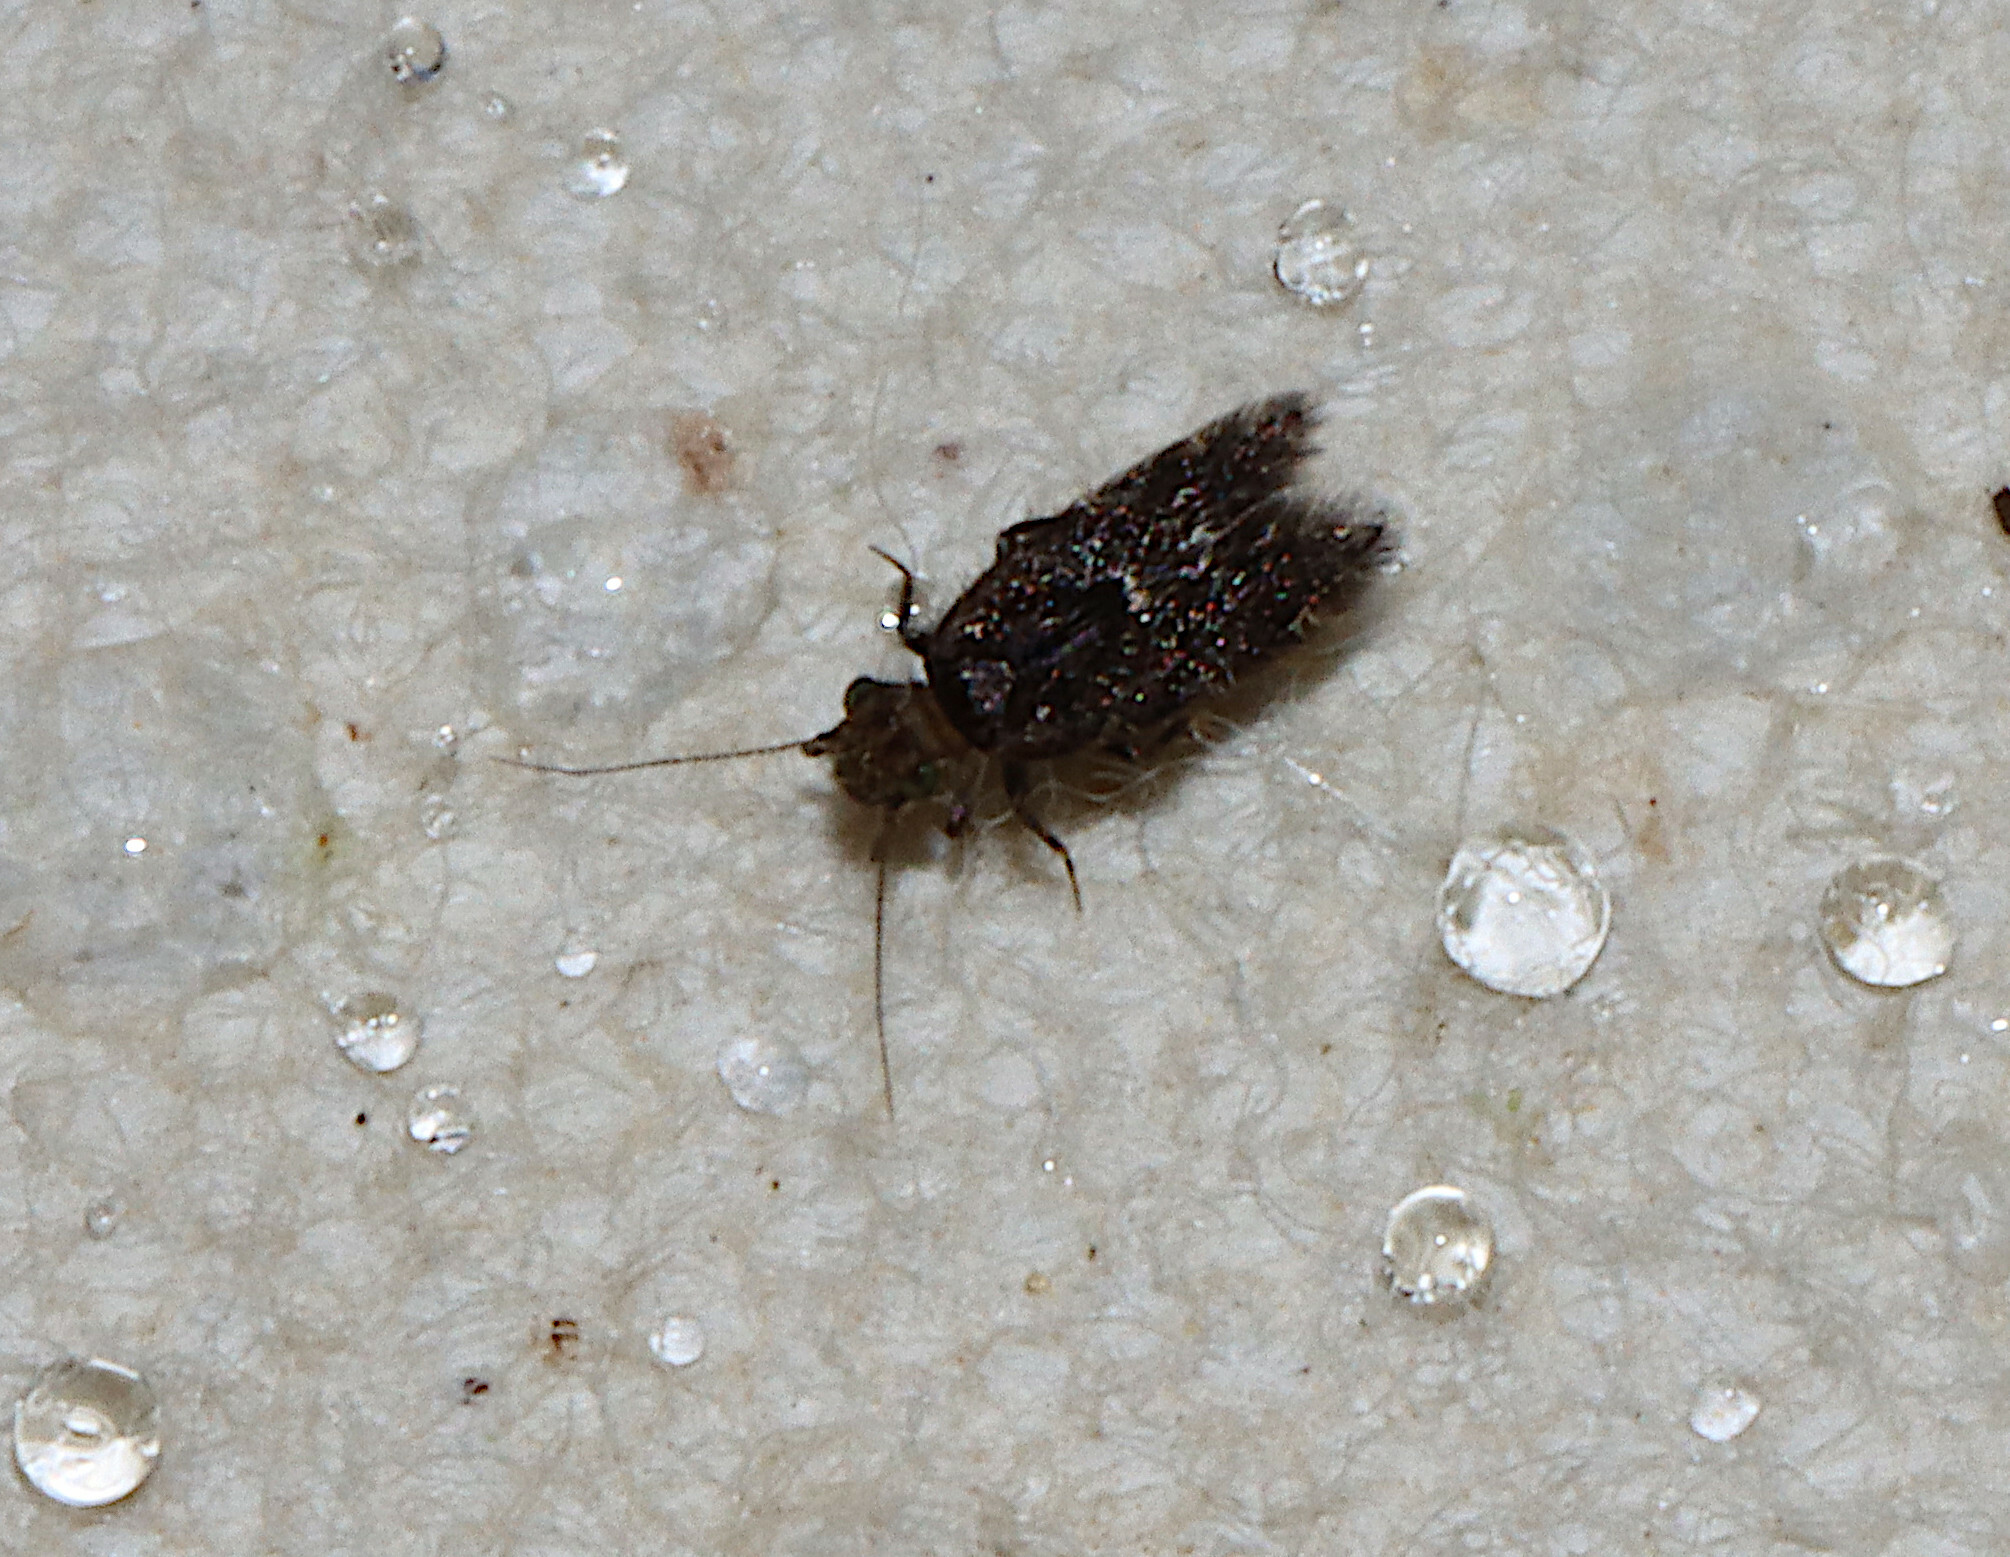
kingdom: Animalia
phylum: Arthropoda
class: Insecta
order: Psocodea
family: Lepidopsocidae
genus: Echmepteryx
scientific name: Echmepteryx hageni
